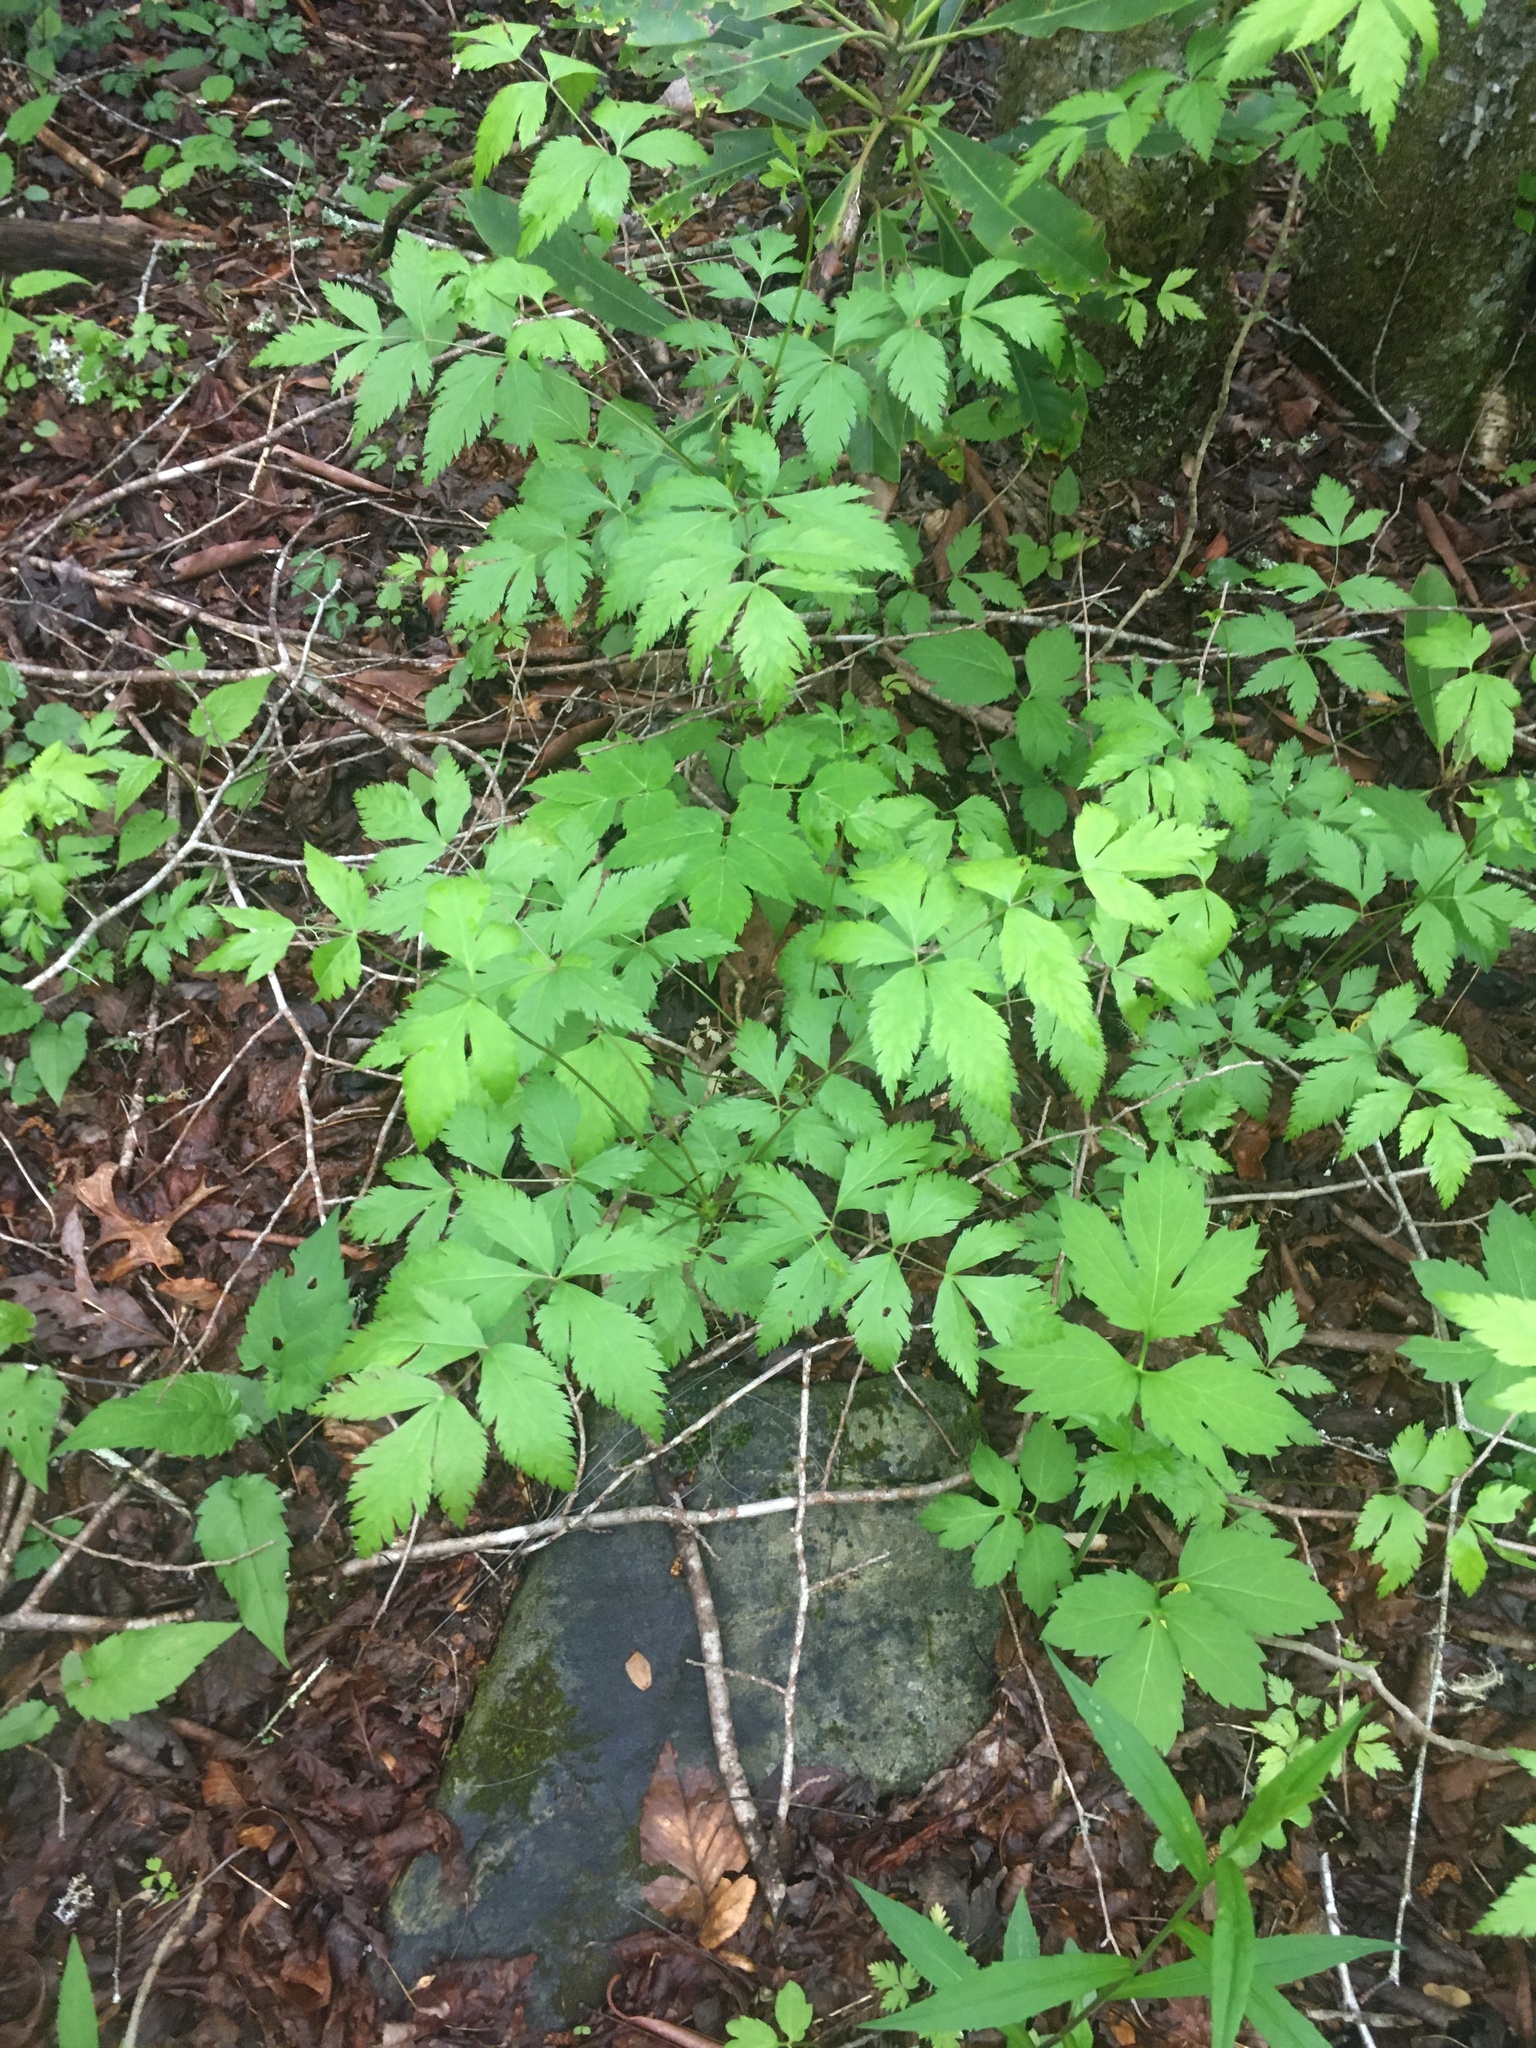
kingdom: Plantae
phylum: Tracheophyta
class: Magnoliopsida
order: Ranunculales
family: Ranunculaceae
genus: Xanthorhiza
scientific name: Xanthorhiza simplicissima
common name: Yellowroot
